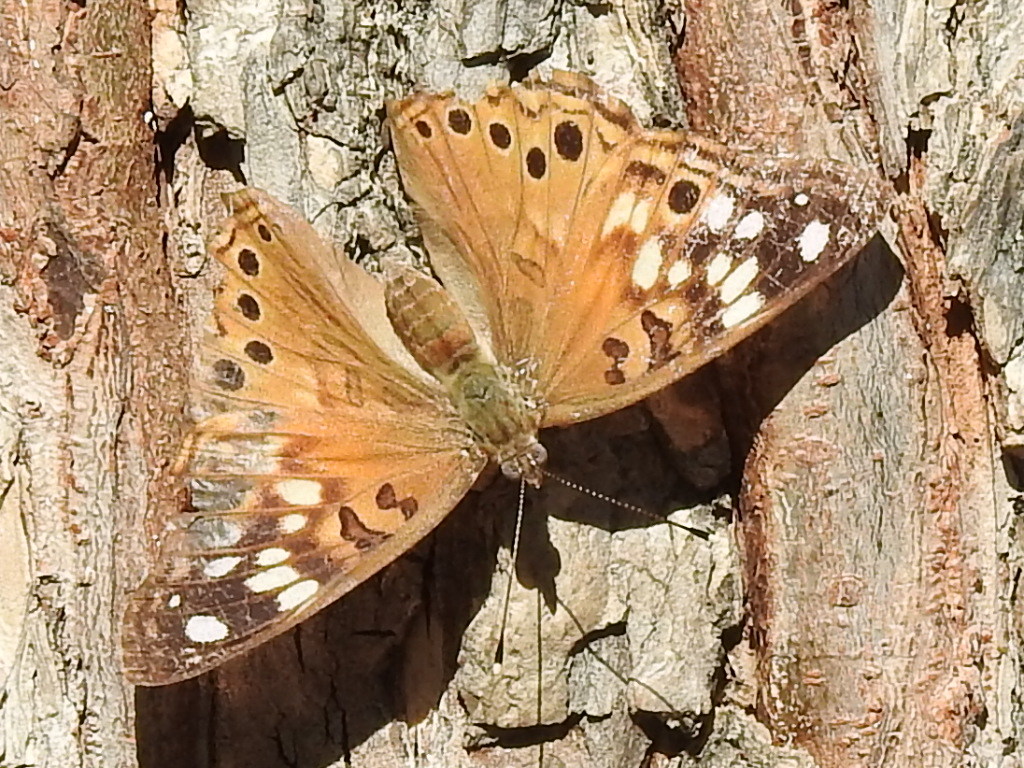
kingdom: Animalia
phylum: Arthropoda
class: Insecta
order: Lepidoptera
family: Nymphalidae
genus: Asterocampa
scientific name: Asterocampa celtis
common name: Hackberry emperor
